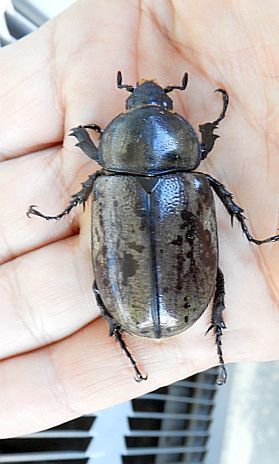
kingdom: Animalia
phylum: Arthropoda
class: Insecta
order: Coleoptera
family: Scarabaeidae
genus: Dynastes
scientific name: Dynastes grantii
